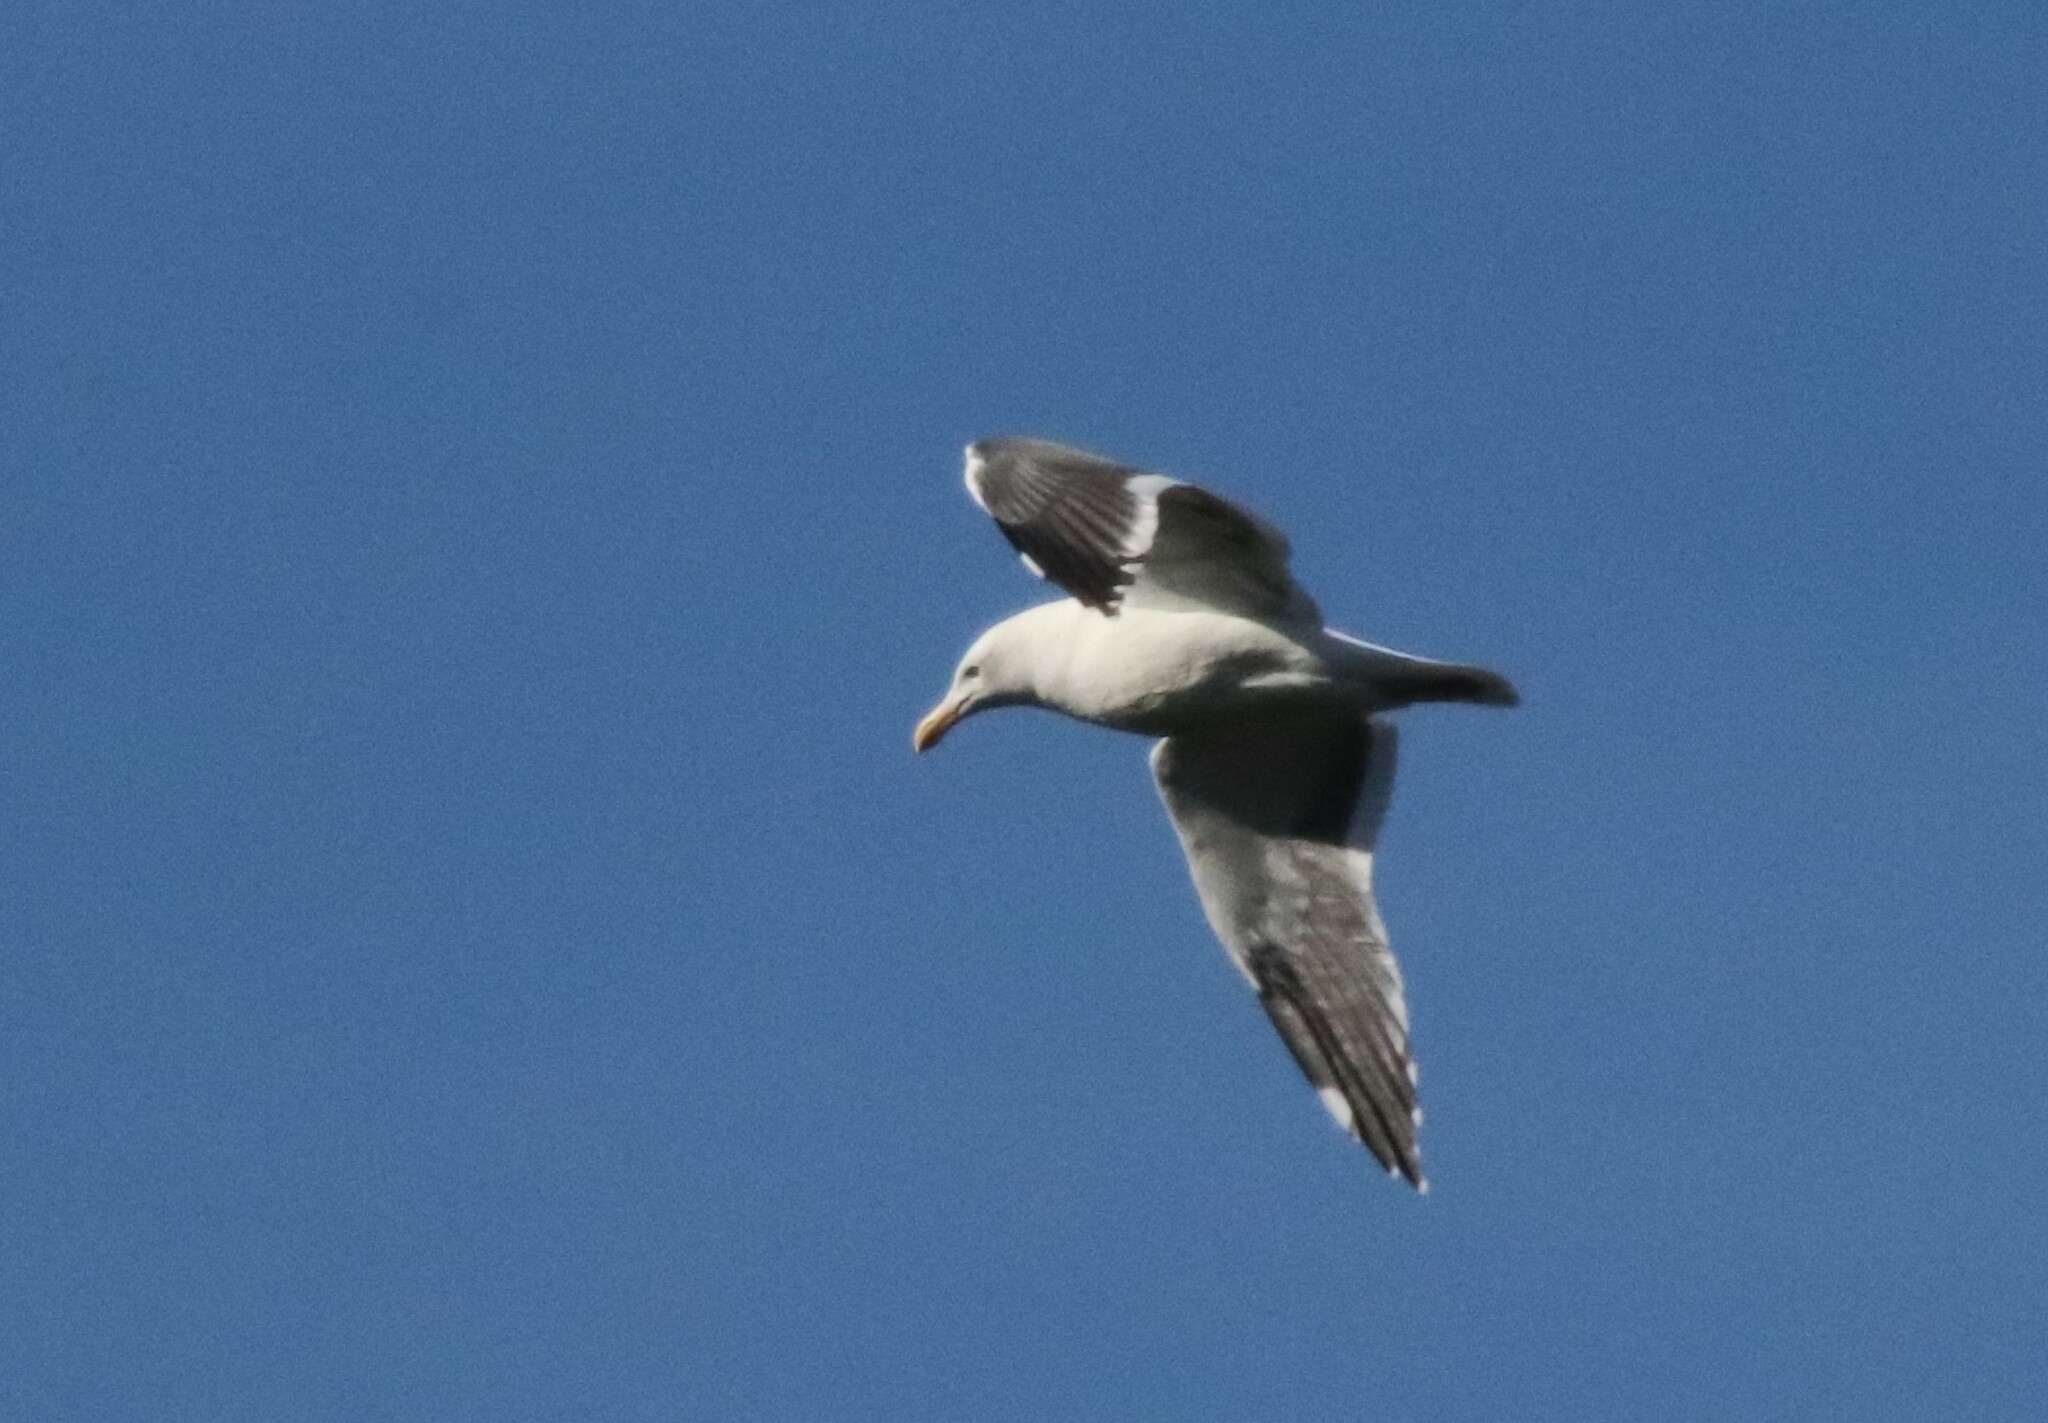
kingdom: Animalia
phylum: Chordata
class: Aves
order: Charadriiformes
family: Laridae
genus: Larus
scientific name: Larus occidentalis
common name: Western gull
